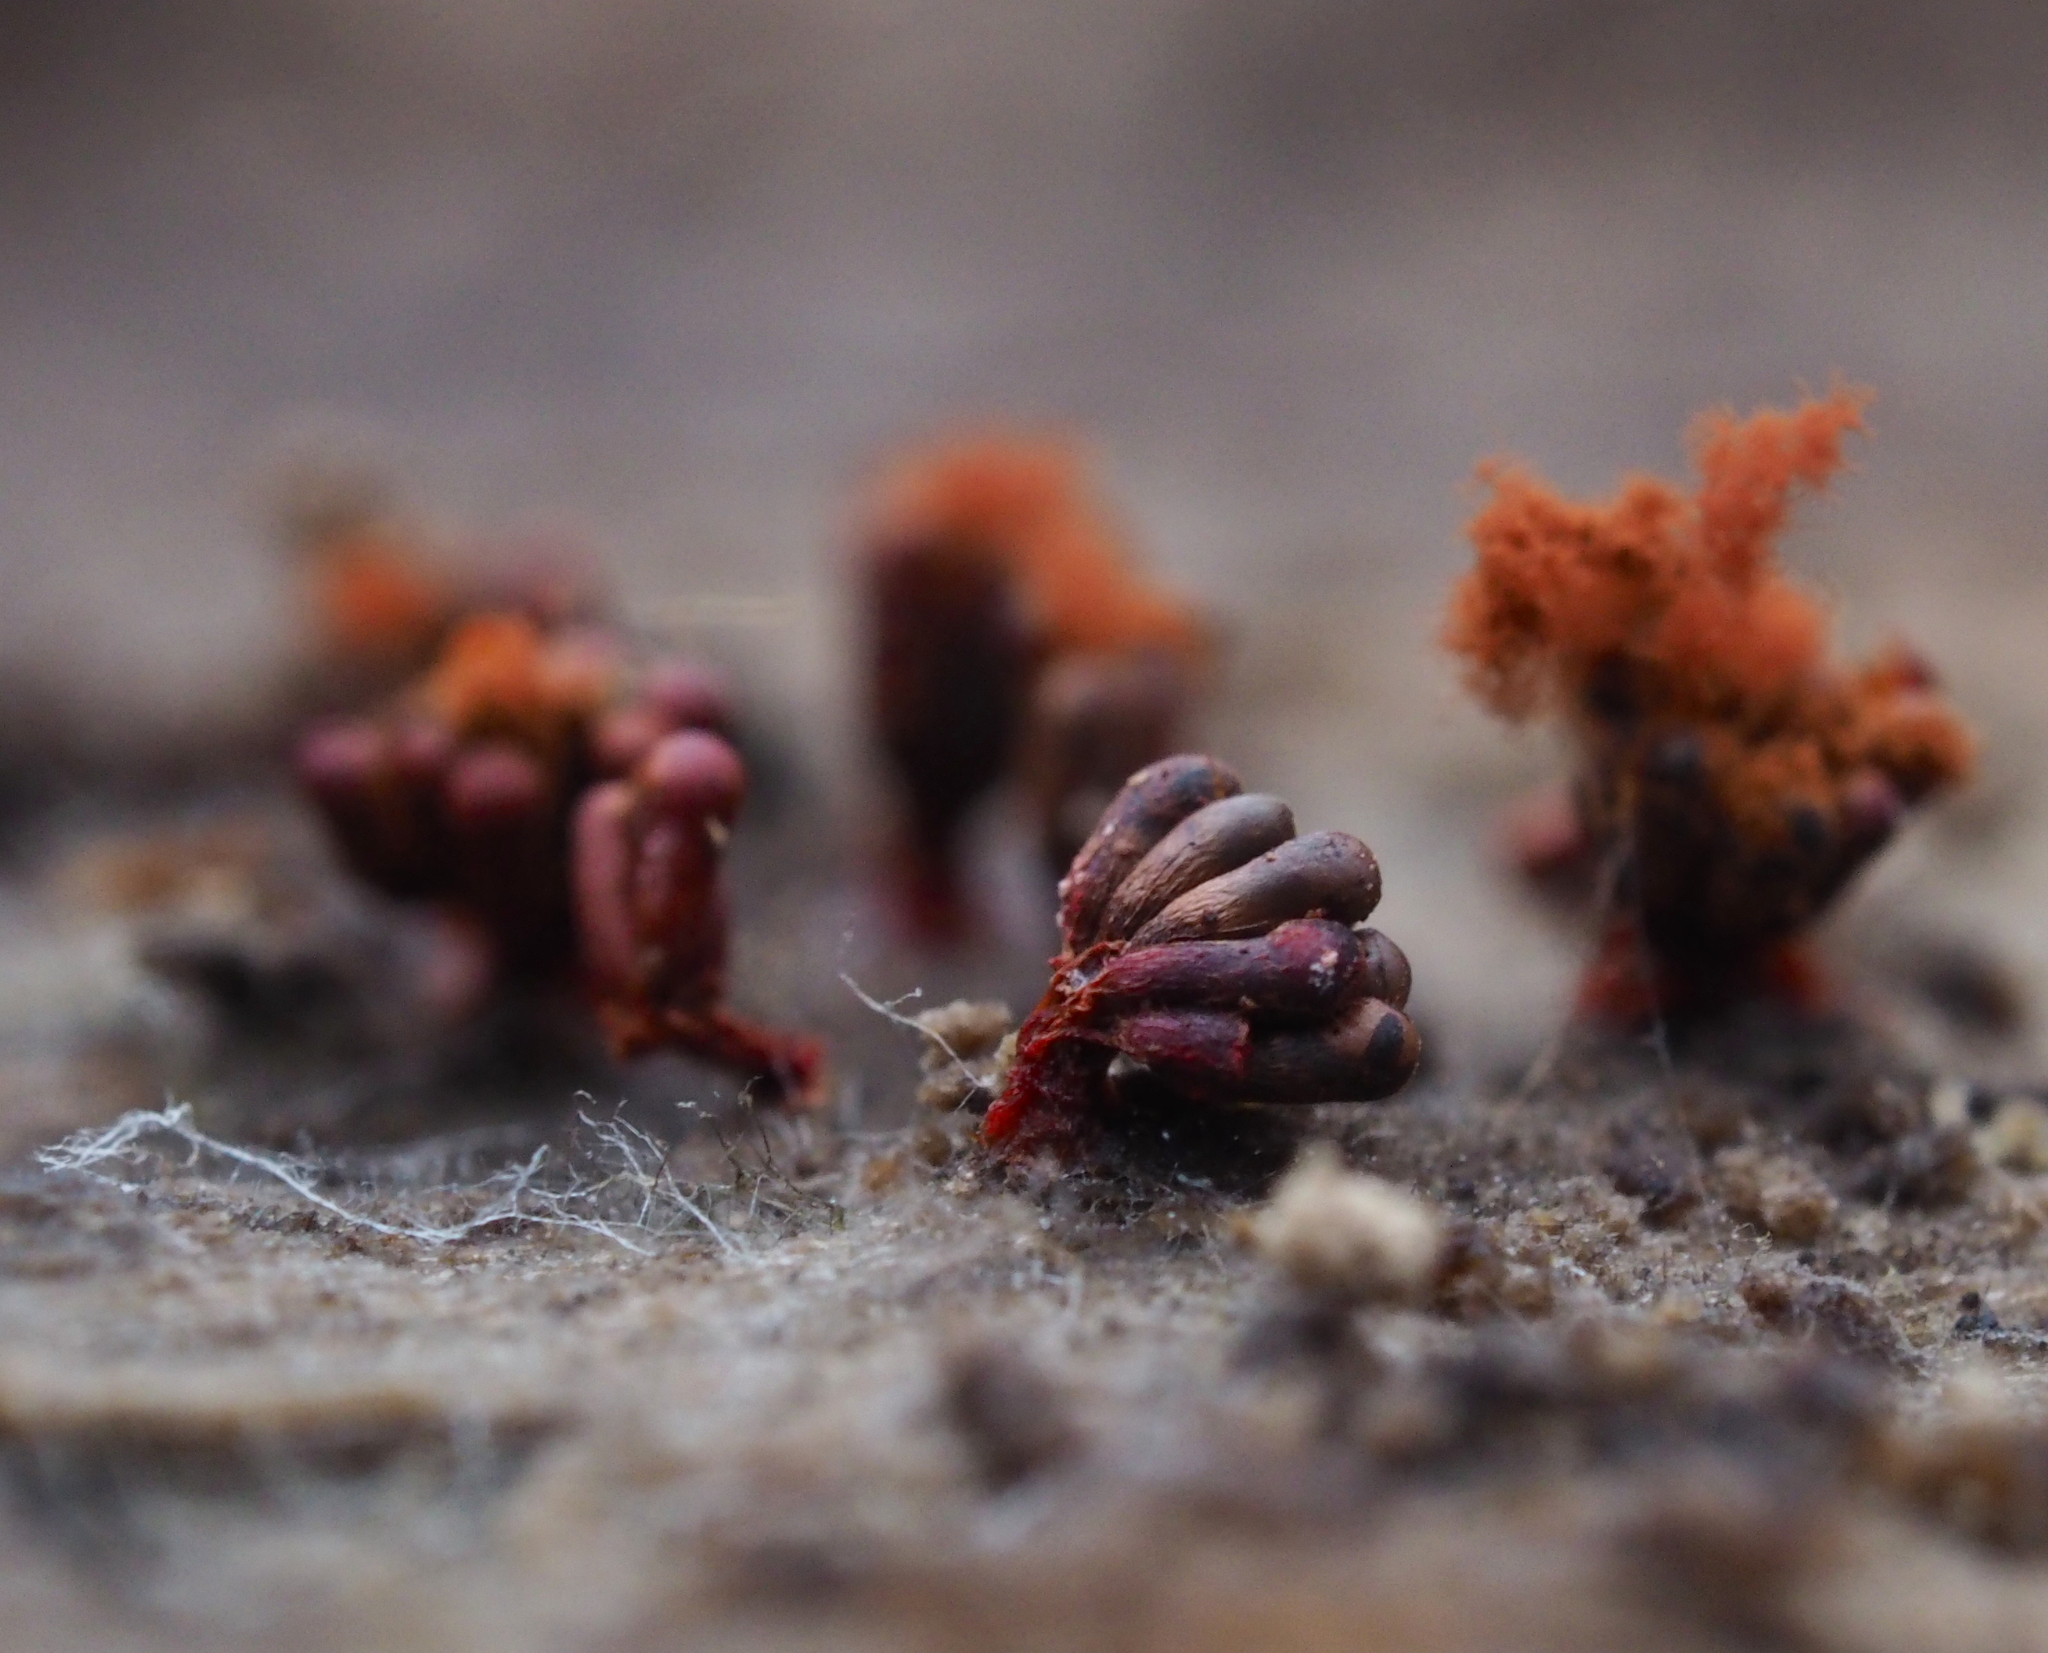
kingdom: Protozoa
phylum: Mycetozoa
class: Myxomycetes
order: Trichiales
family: Trichiaceae
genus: Metatrichia
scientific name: Metatrichia vesparia
